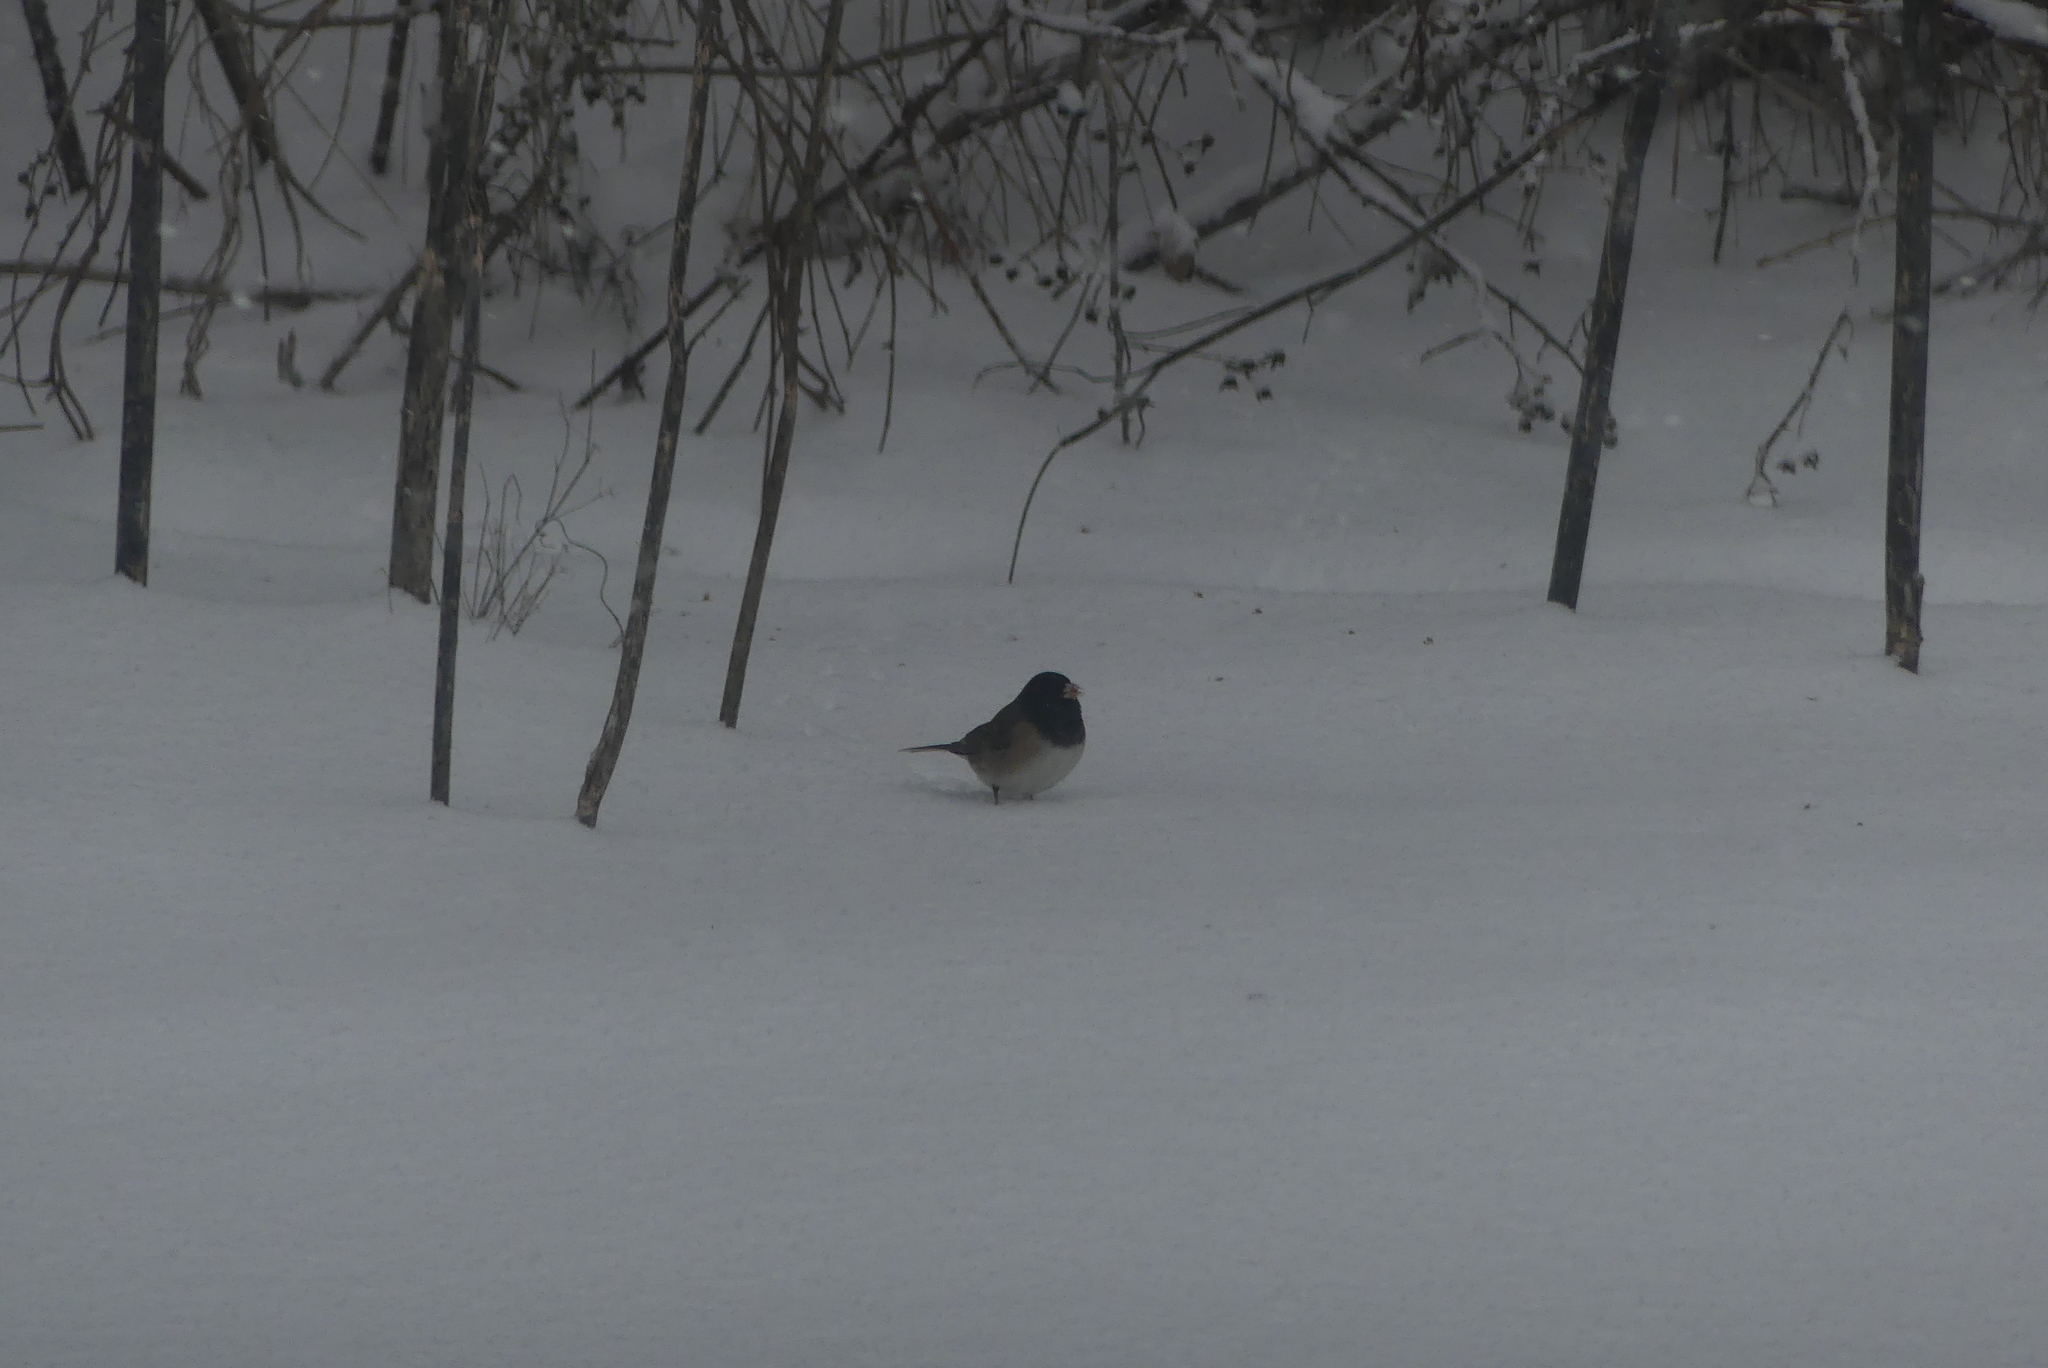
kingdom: Animalia
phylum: Chordata
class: Aves
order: Passeriformes
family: Passerellidae
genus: Junco
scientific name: Junco hyemalis
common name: Dark-eyed junco
